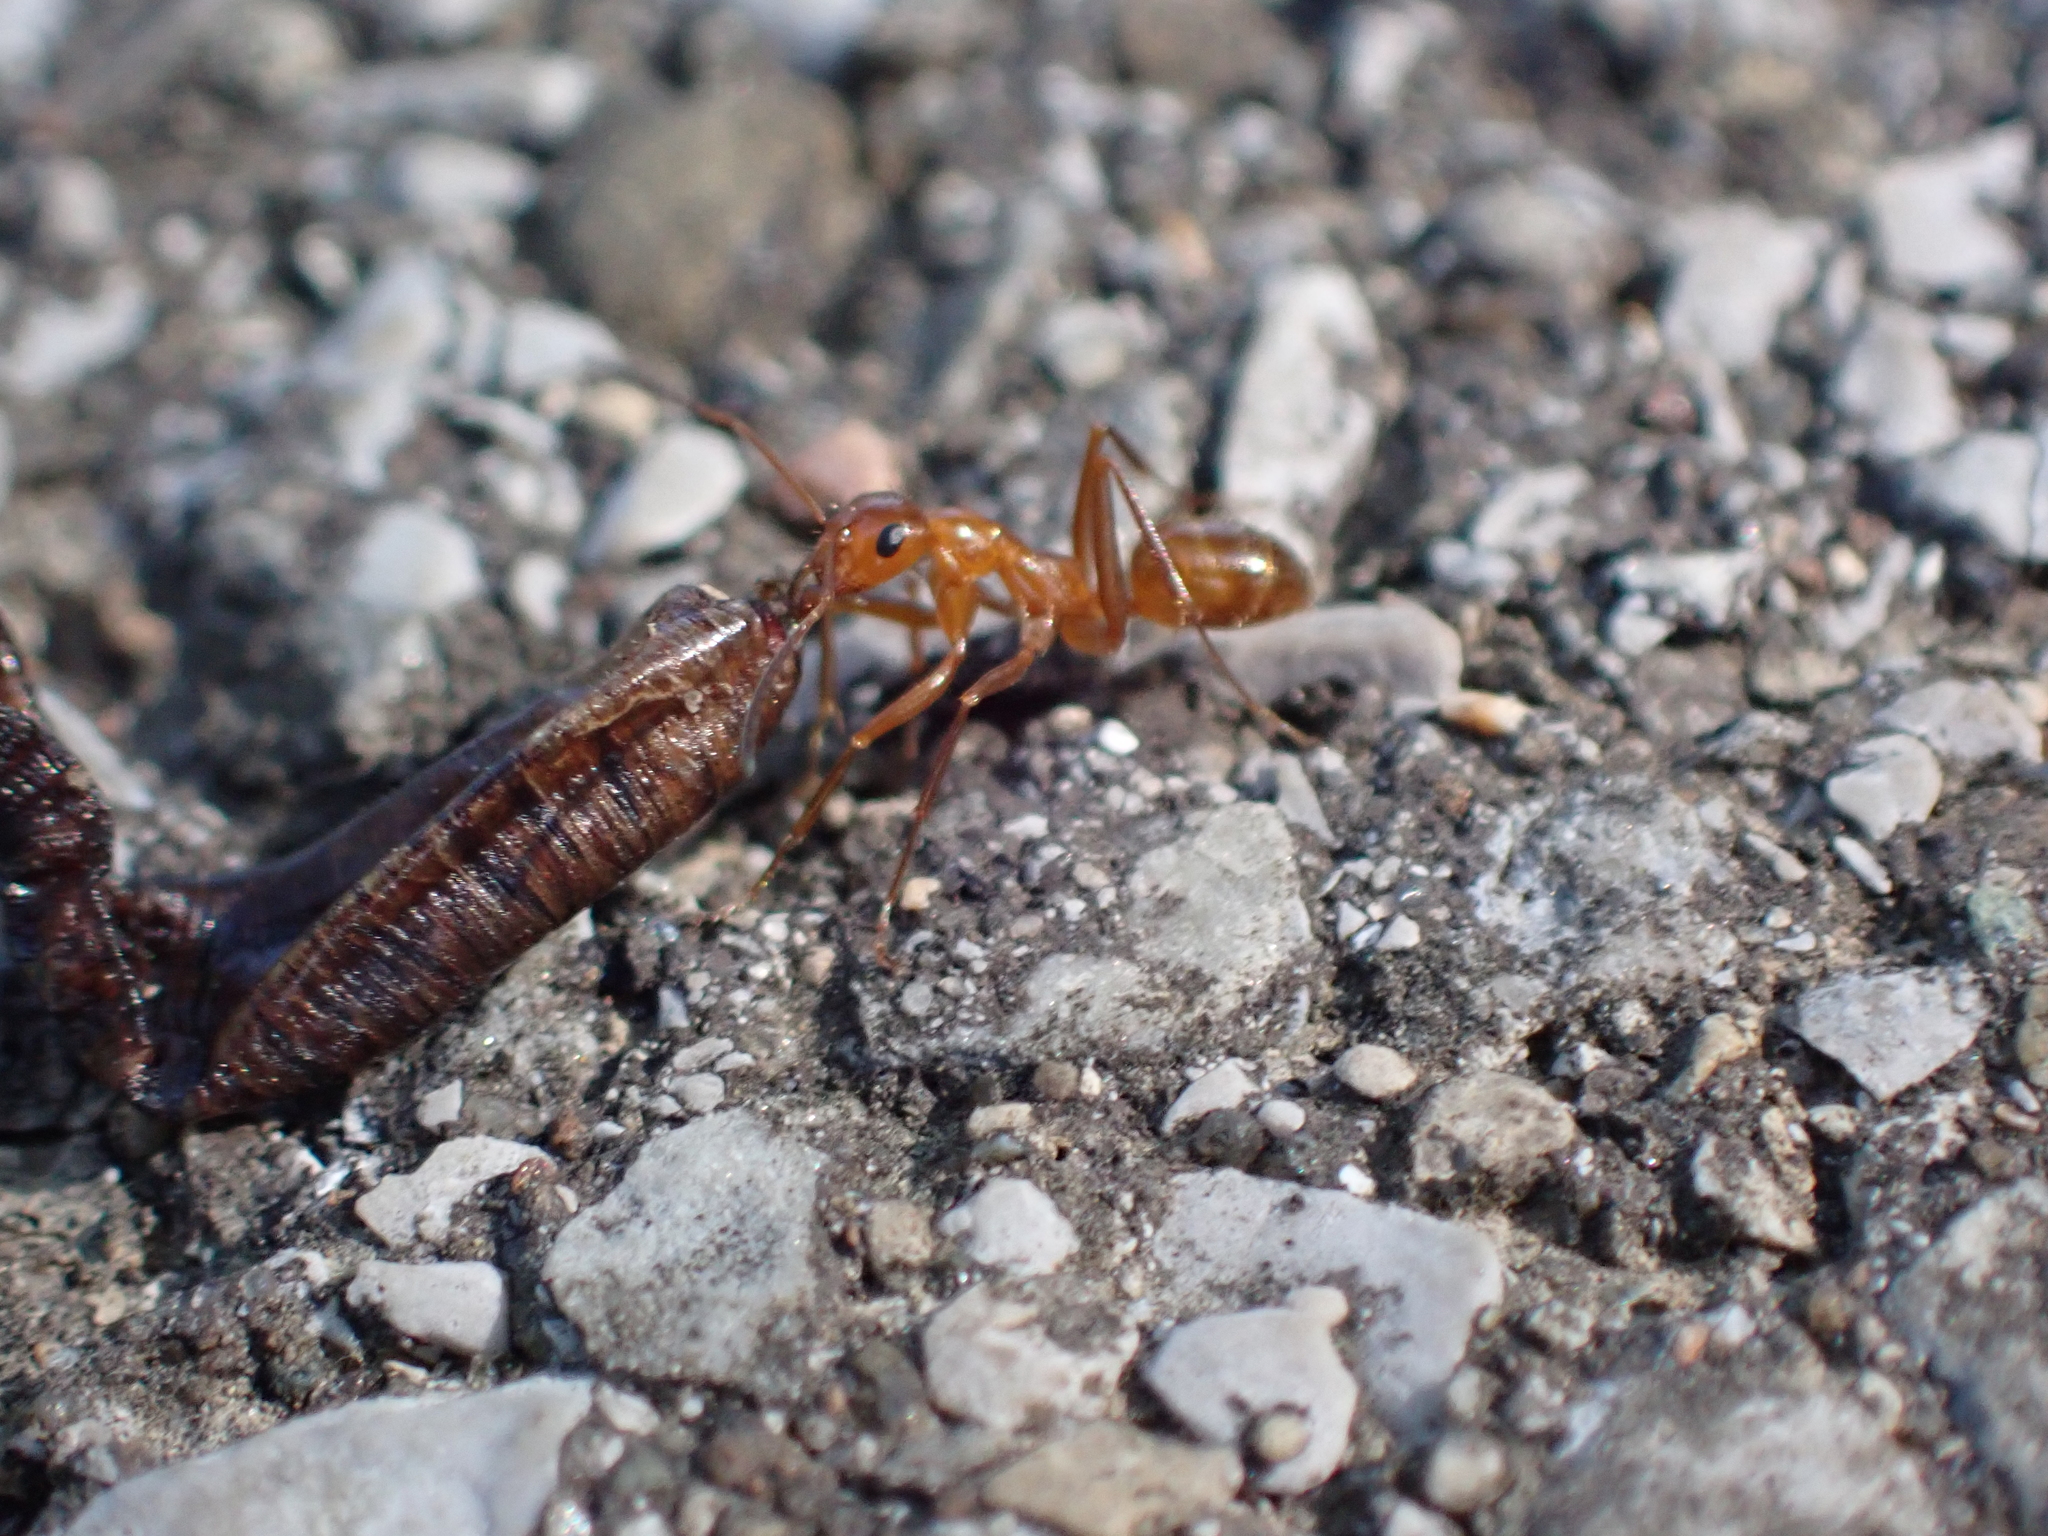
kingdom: Animalia
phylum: Arthropoda
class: Insecta
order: Hymenoptera
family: Formicidae
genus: Formica
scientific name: Formica pallidefulva
